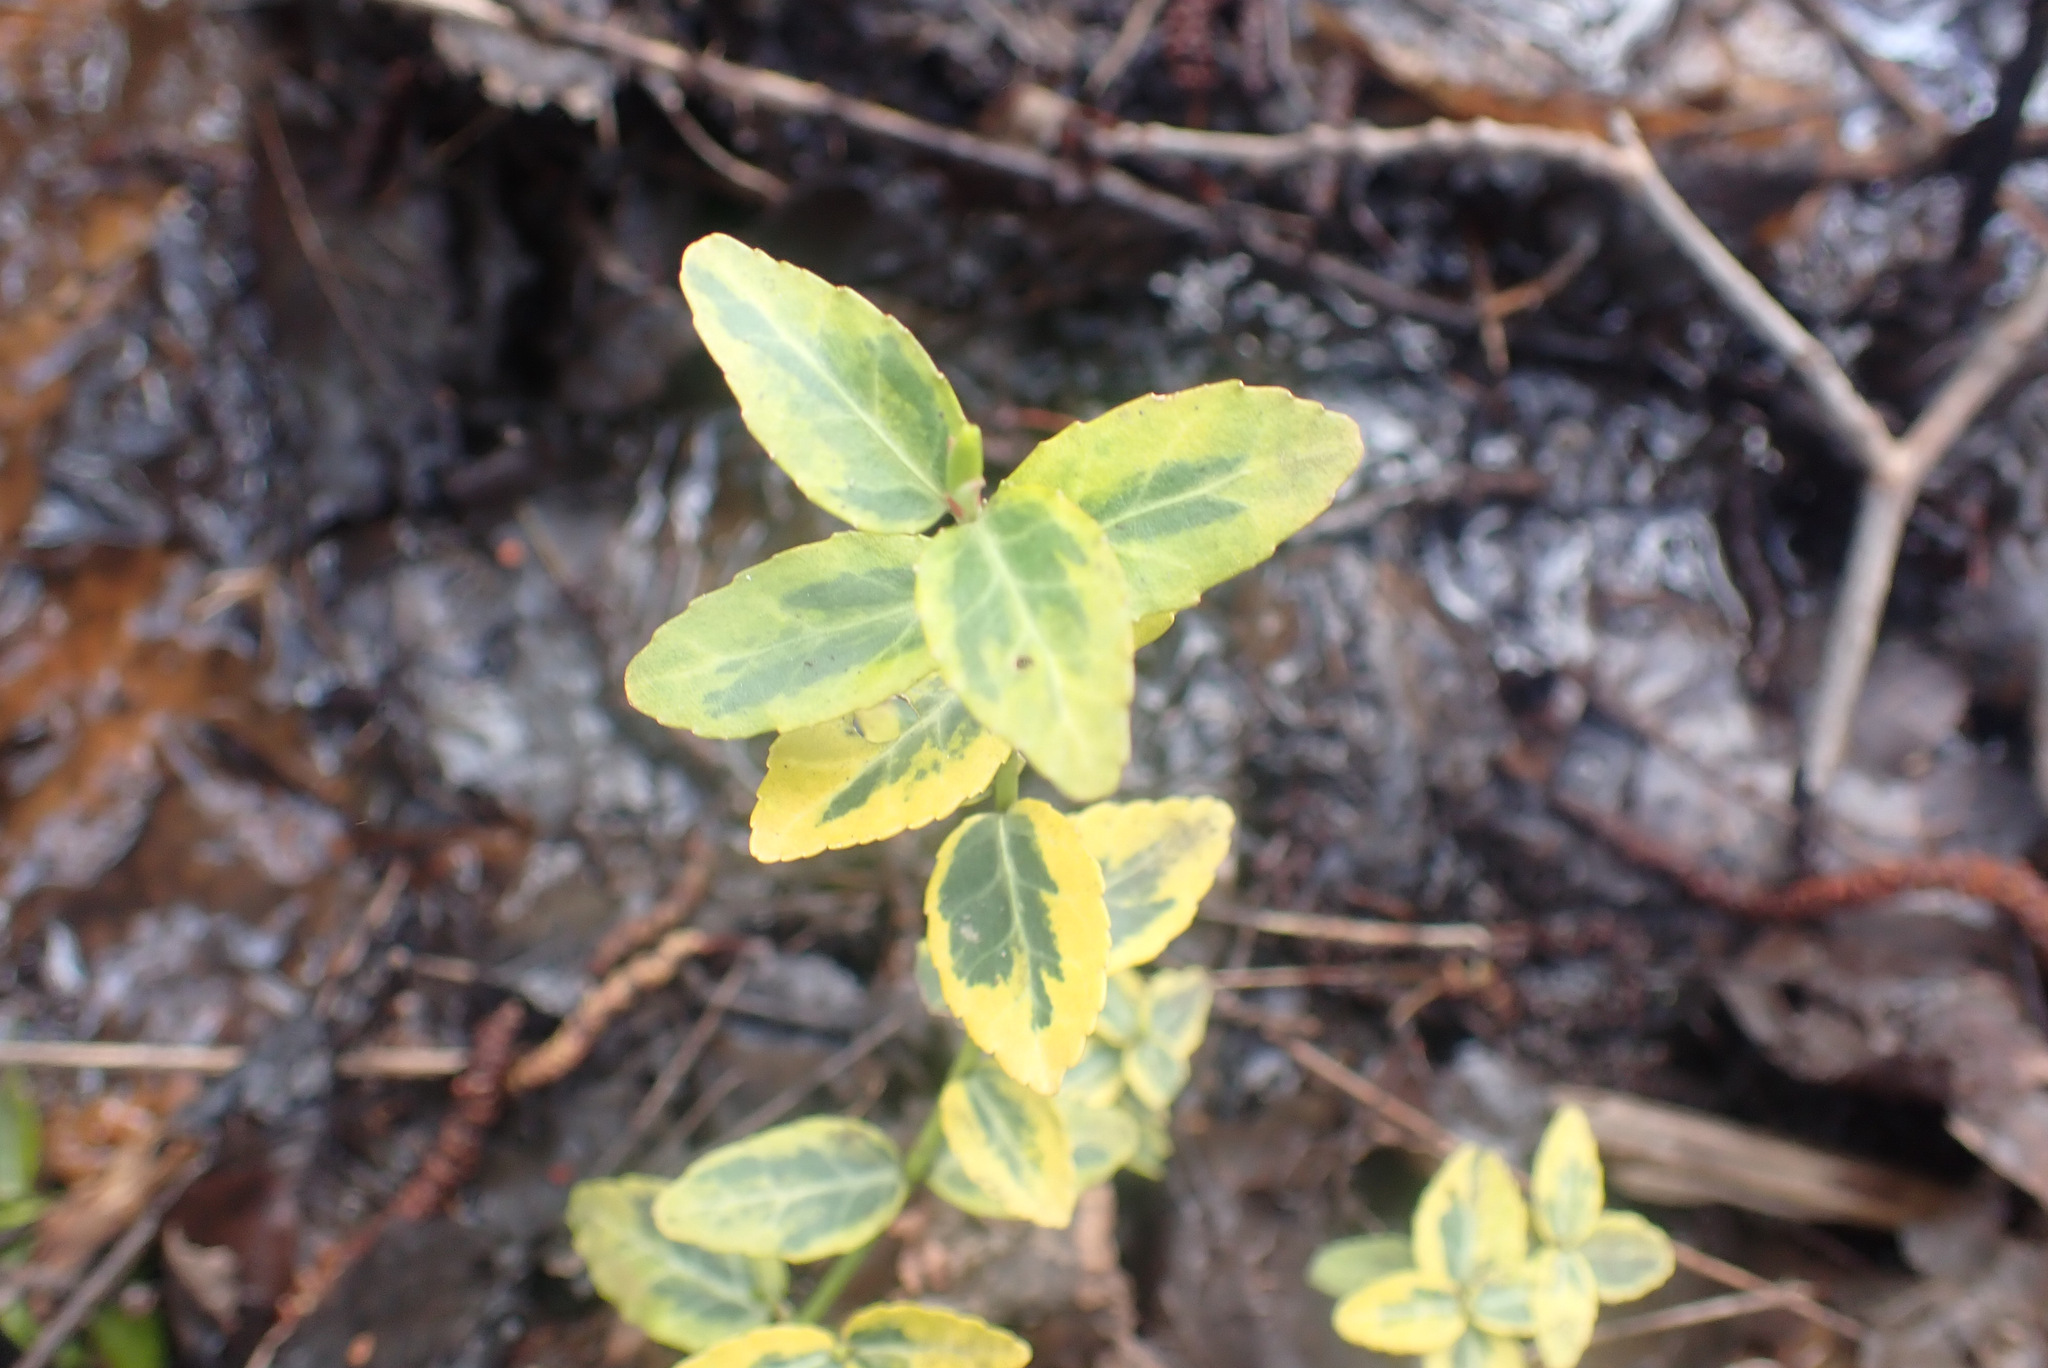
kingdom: Plantae
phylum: Tracheophyta
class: Magnoliopsida
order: Celastrales
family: Celastraceae
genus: Euonymus
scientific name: Euonymus fortunei
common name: Climbing euonymus
